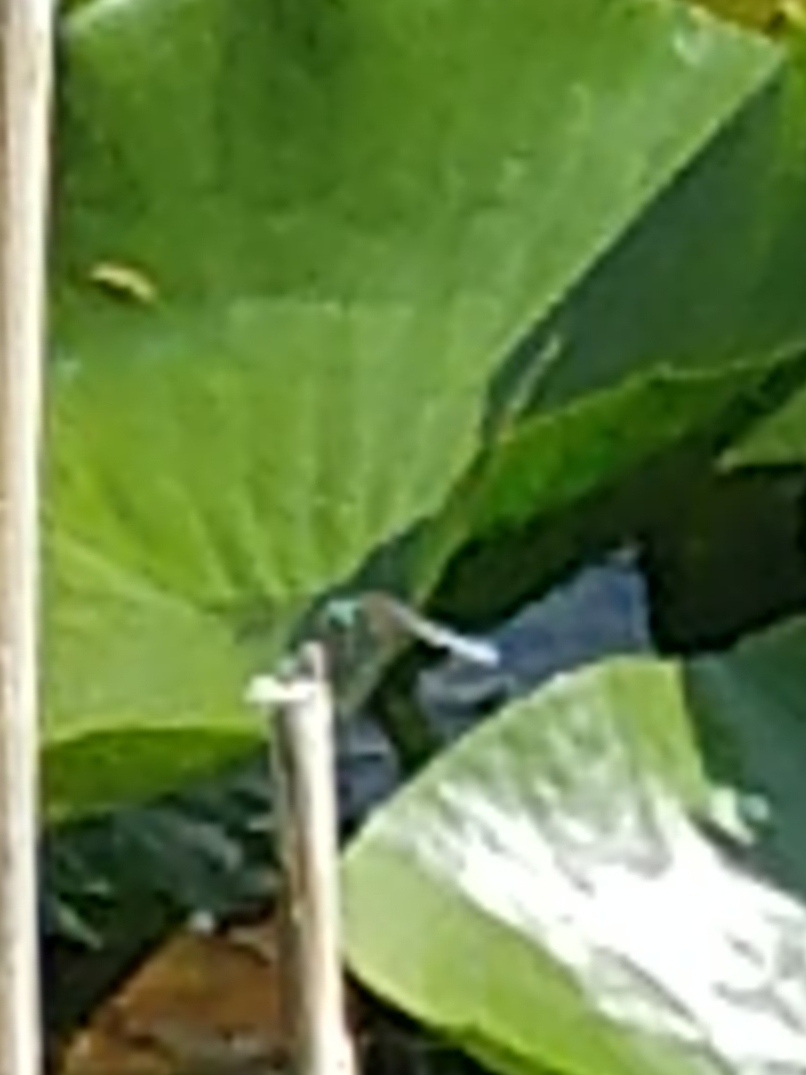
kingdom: Animalia
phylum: Arthropoda
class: Insecta
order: Odonata
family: Libellulidae
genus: Pachydiplax
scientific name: Pachydiplax longipennis
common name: Blue dasher
